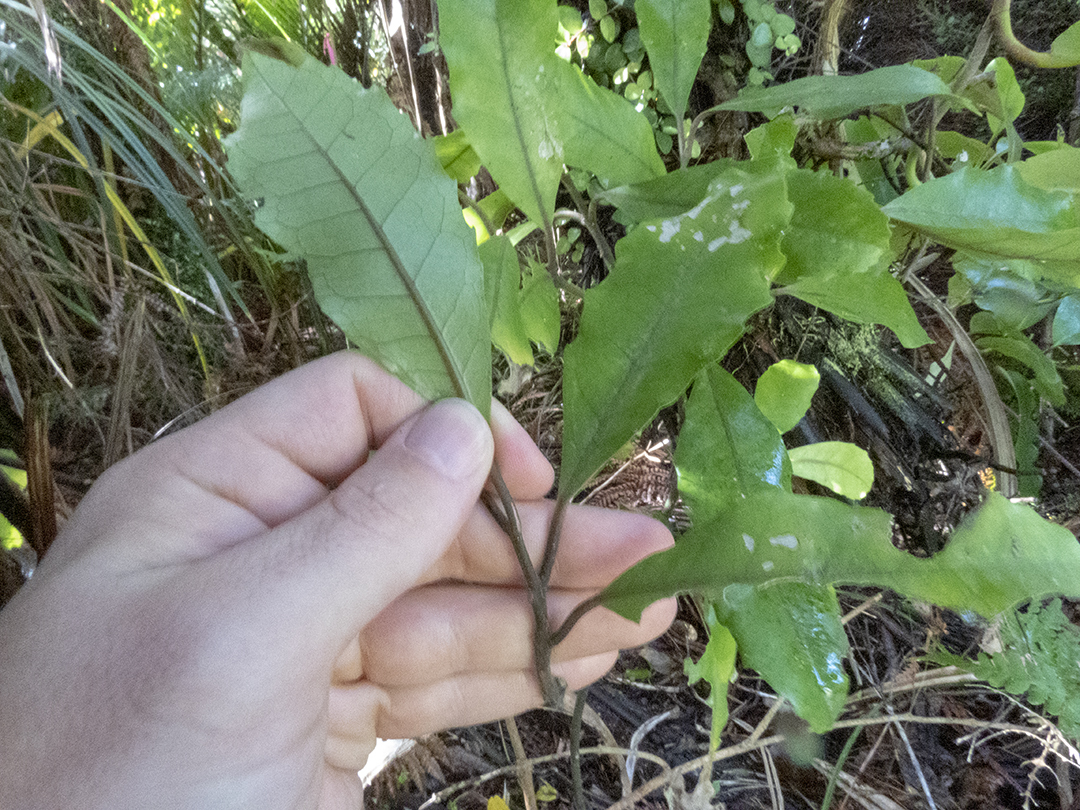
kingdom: Plantae
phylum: Tracheophyta
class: Magnoliopsida
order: Laurales
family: Monimiaceae
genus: Hedycarya
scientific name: Hedycarya arborea
